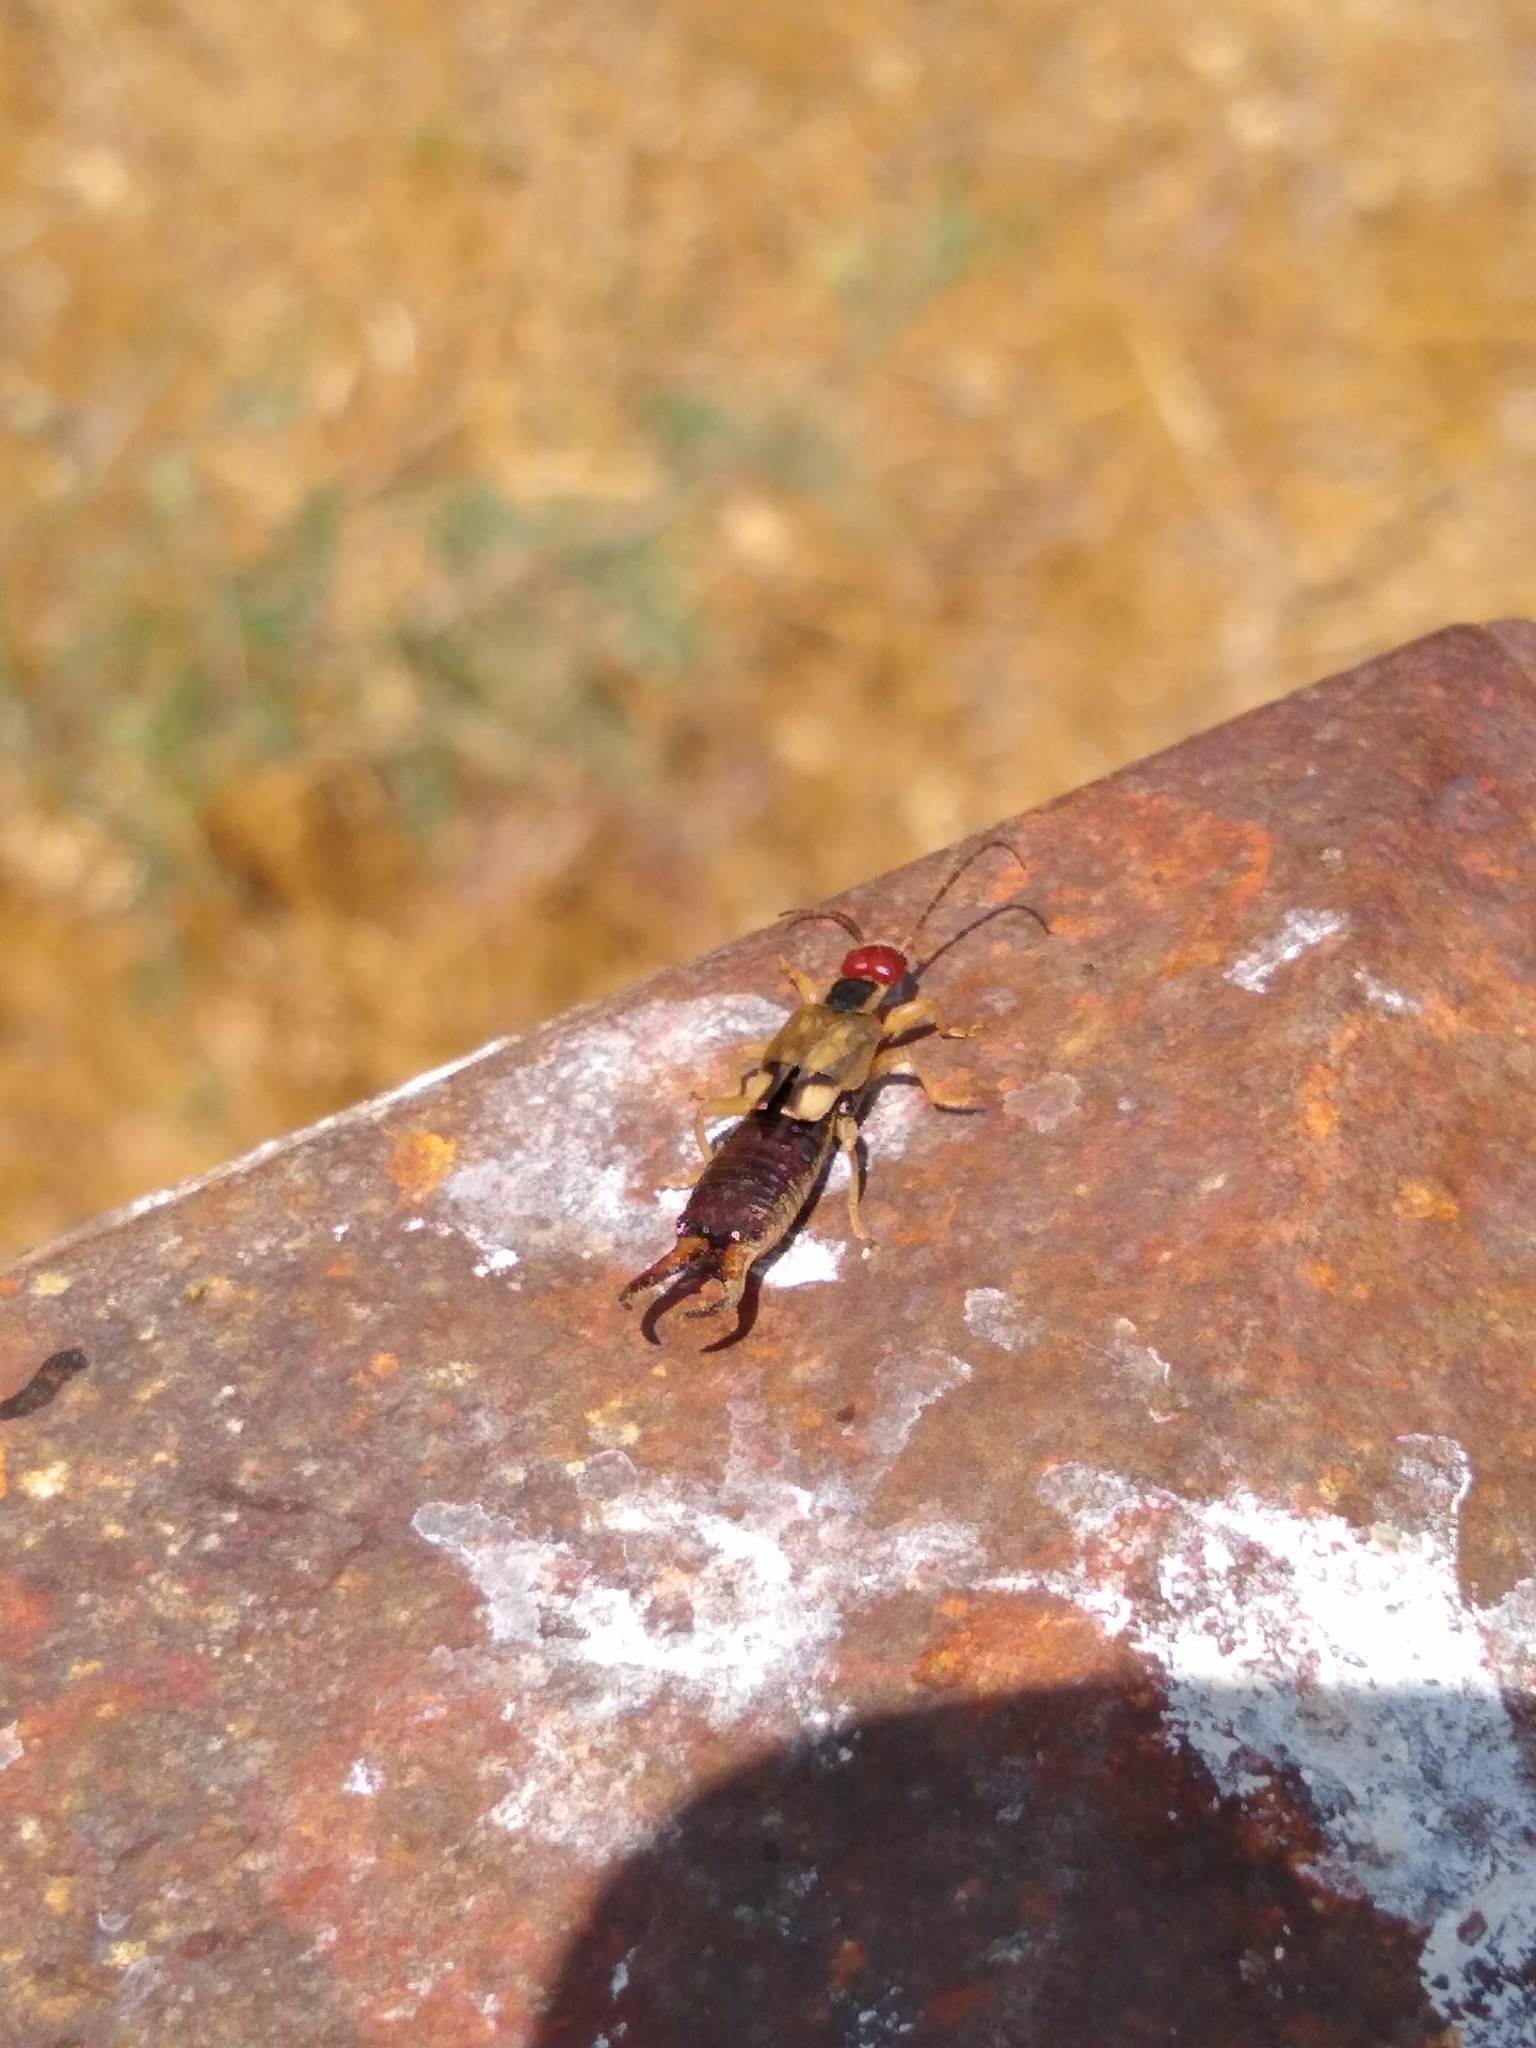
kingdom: Animalia
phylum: Arthropoda
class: Insecta
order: Dermaptera
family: Forficulidae
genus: Forficula
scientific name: Forficula
